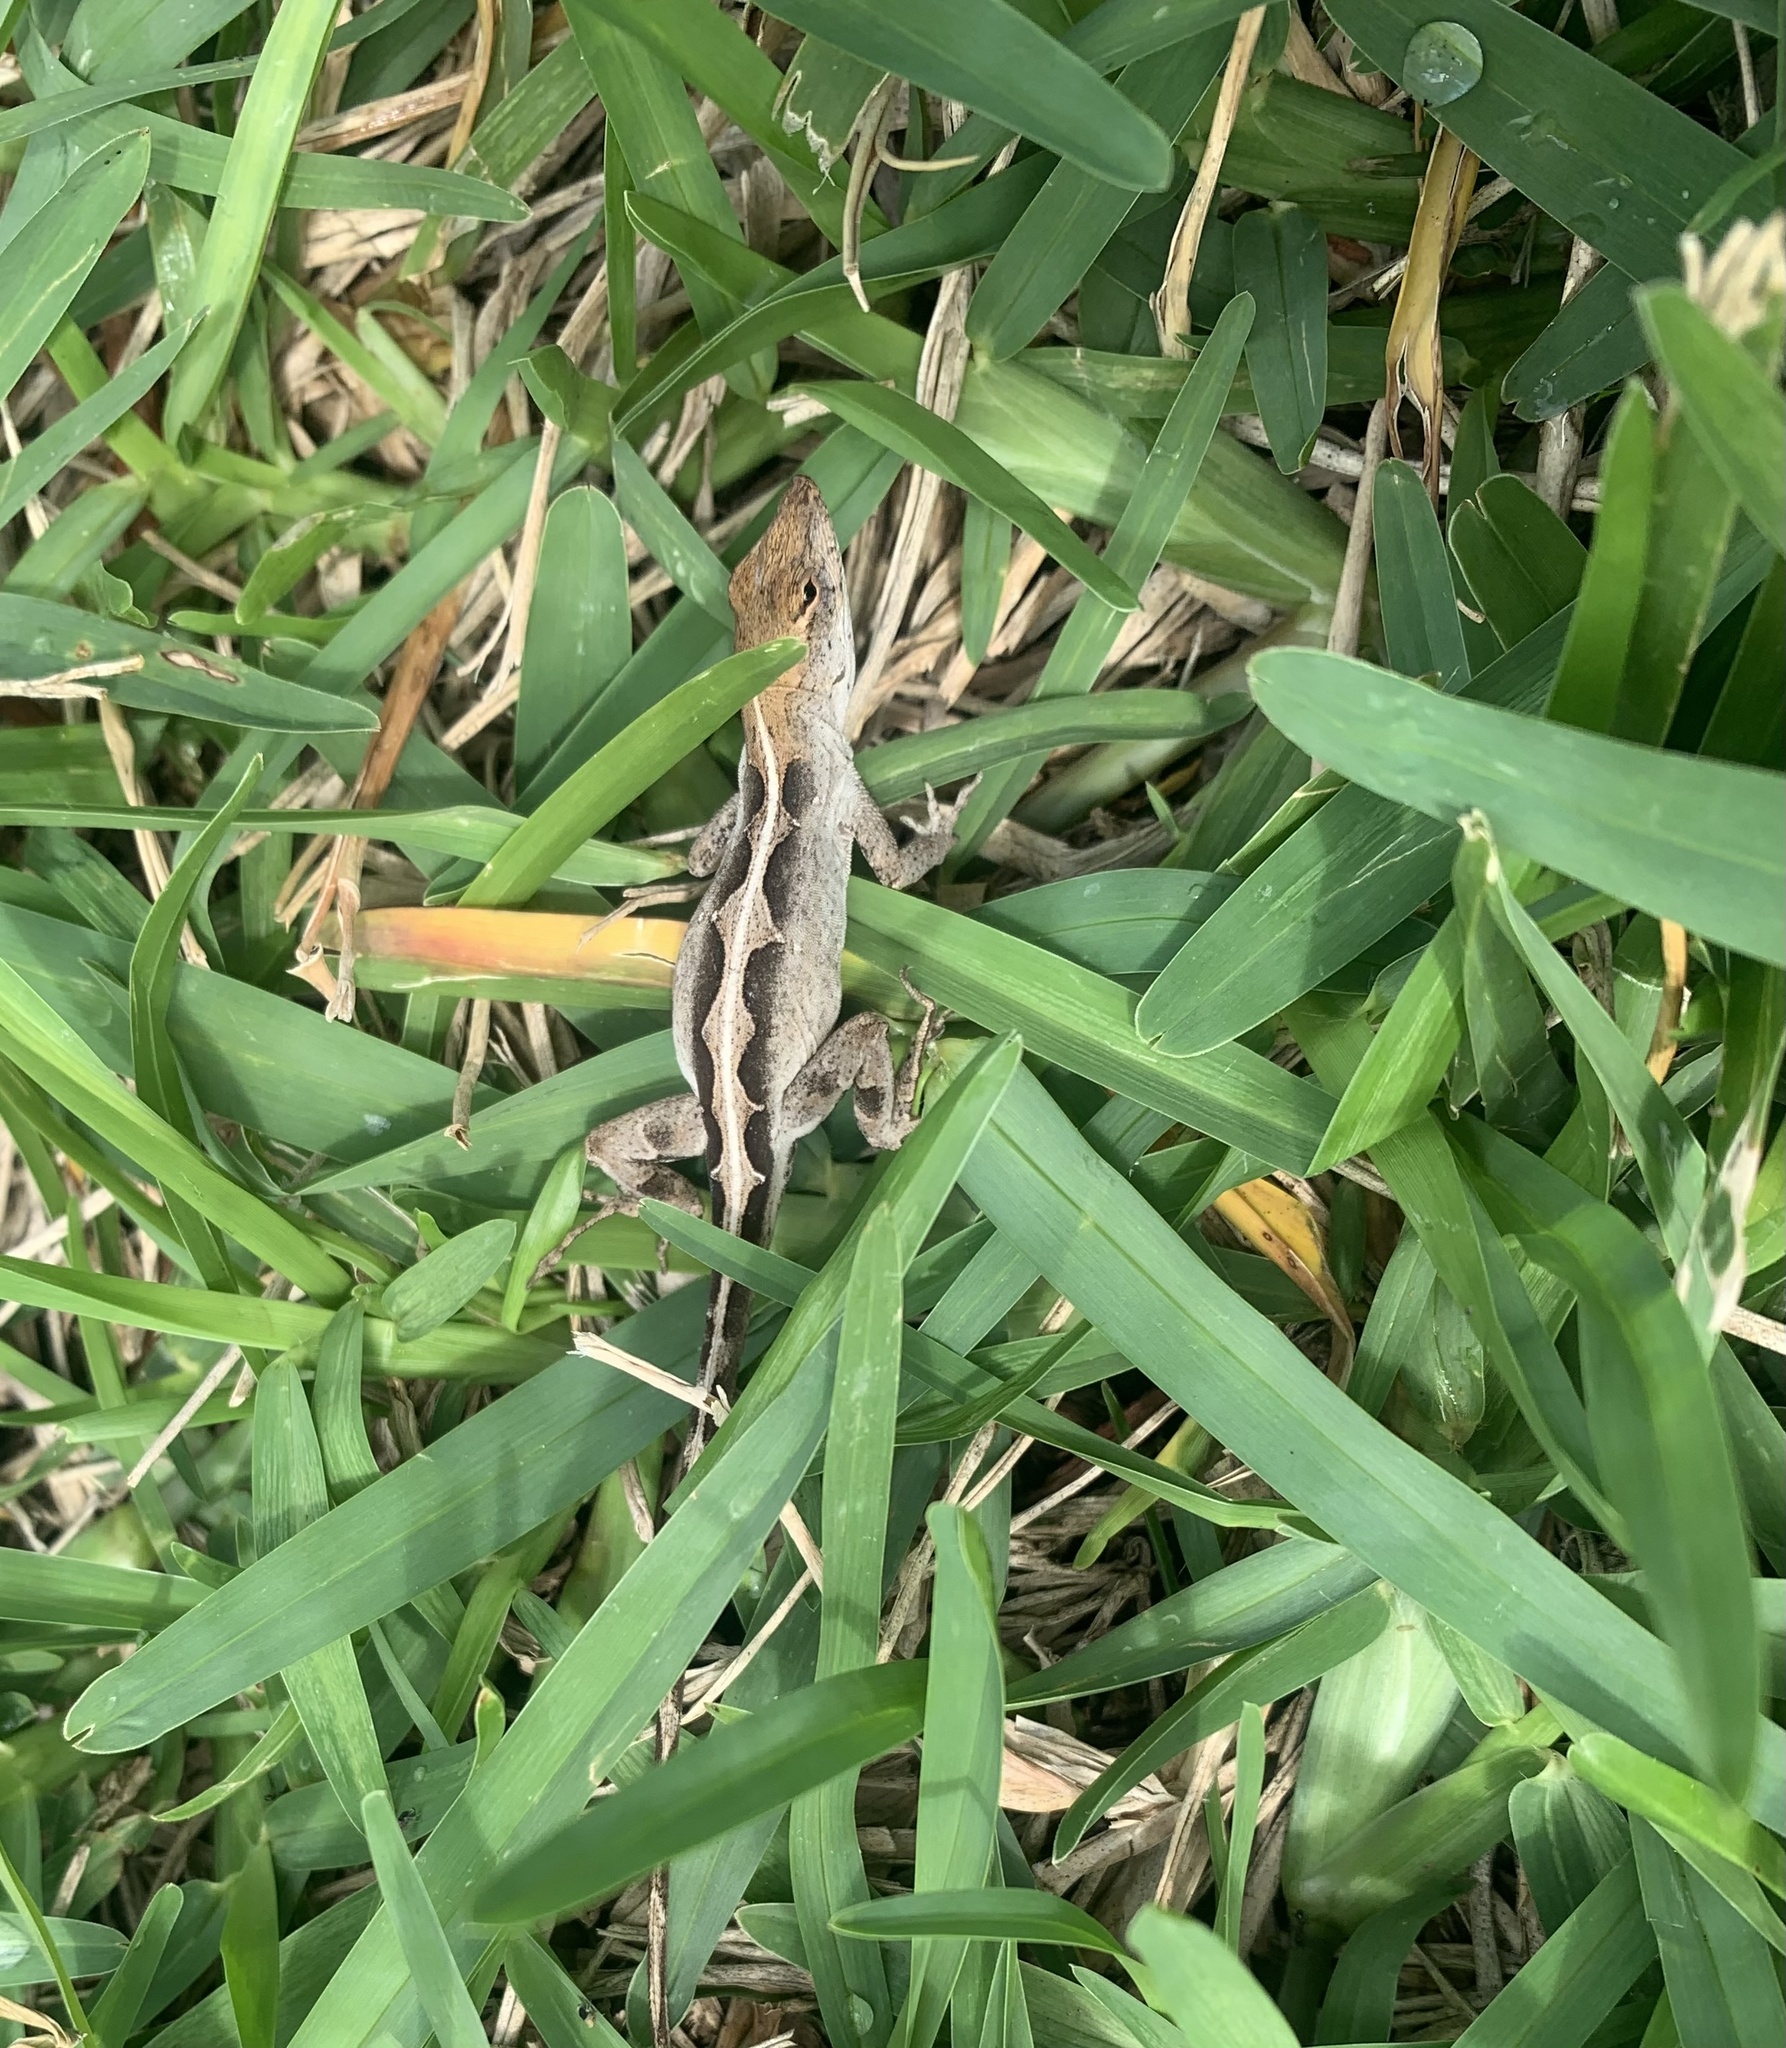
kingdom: Animalia
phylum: Chordata
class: Squamata
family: Dactyloidae
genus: Anolis
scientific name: Anolis sagrei
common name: Brown anole
